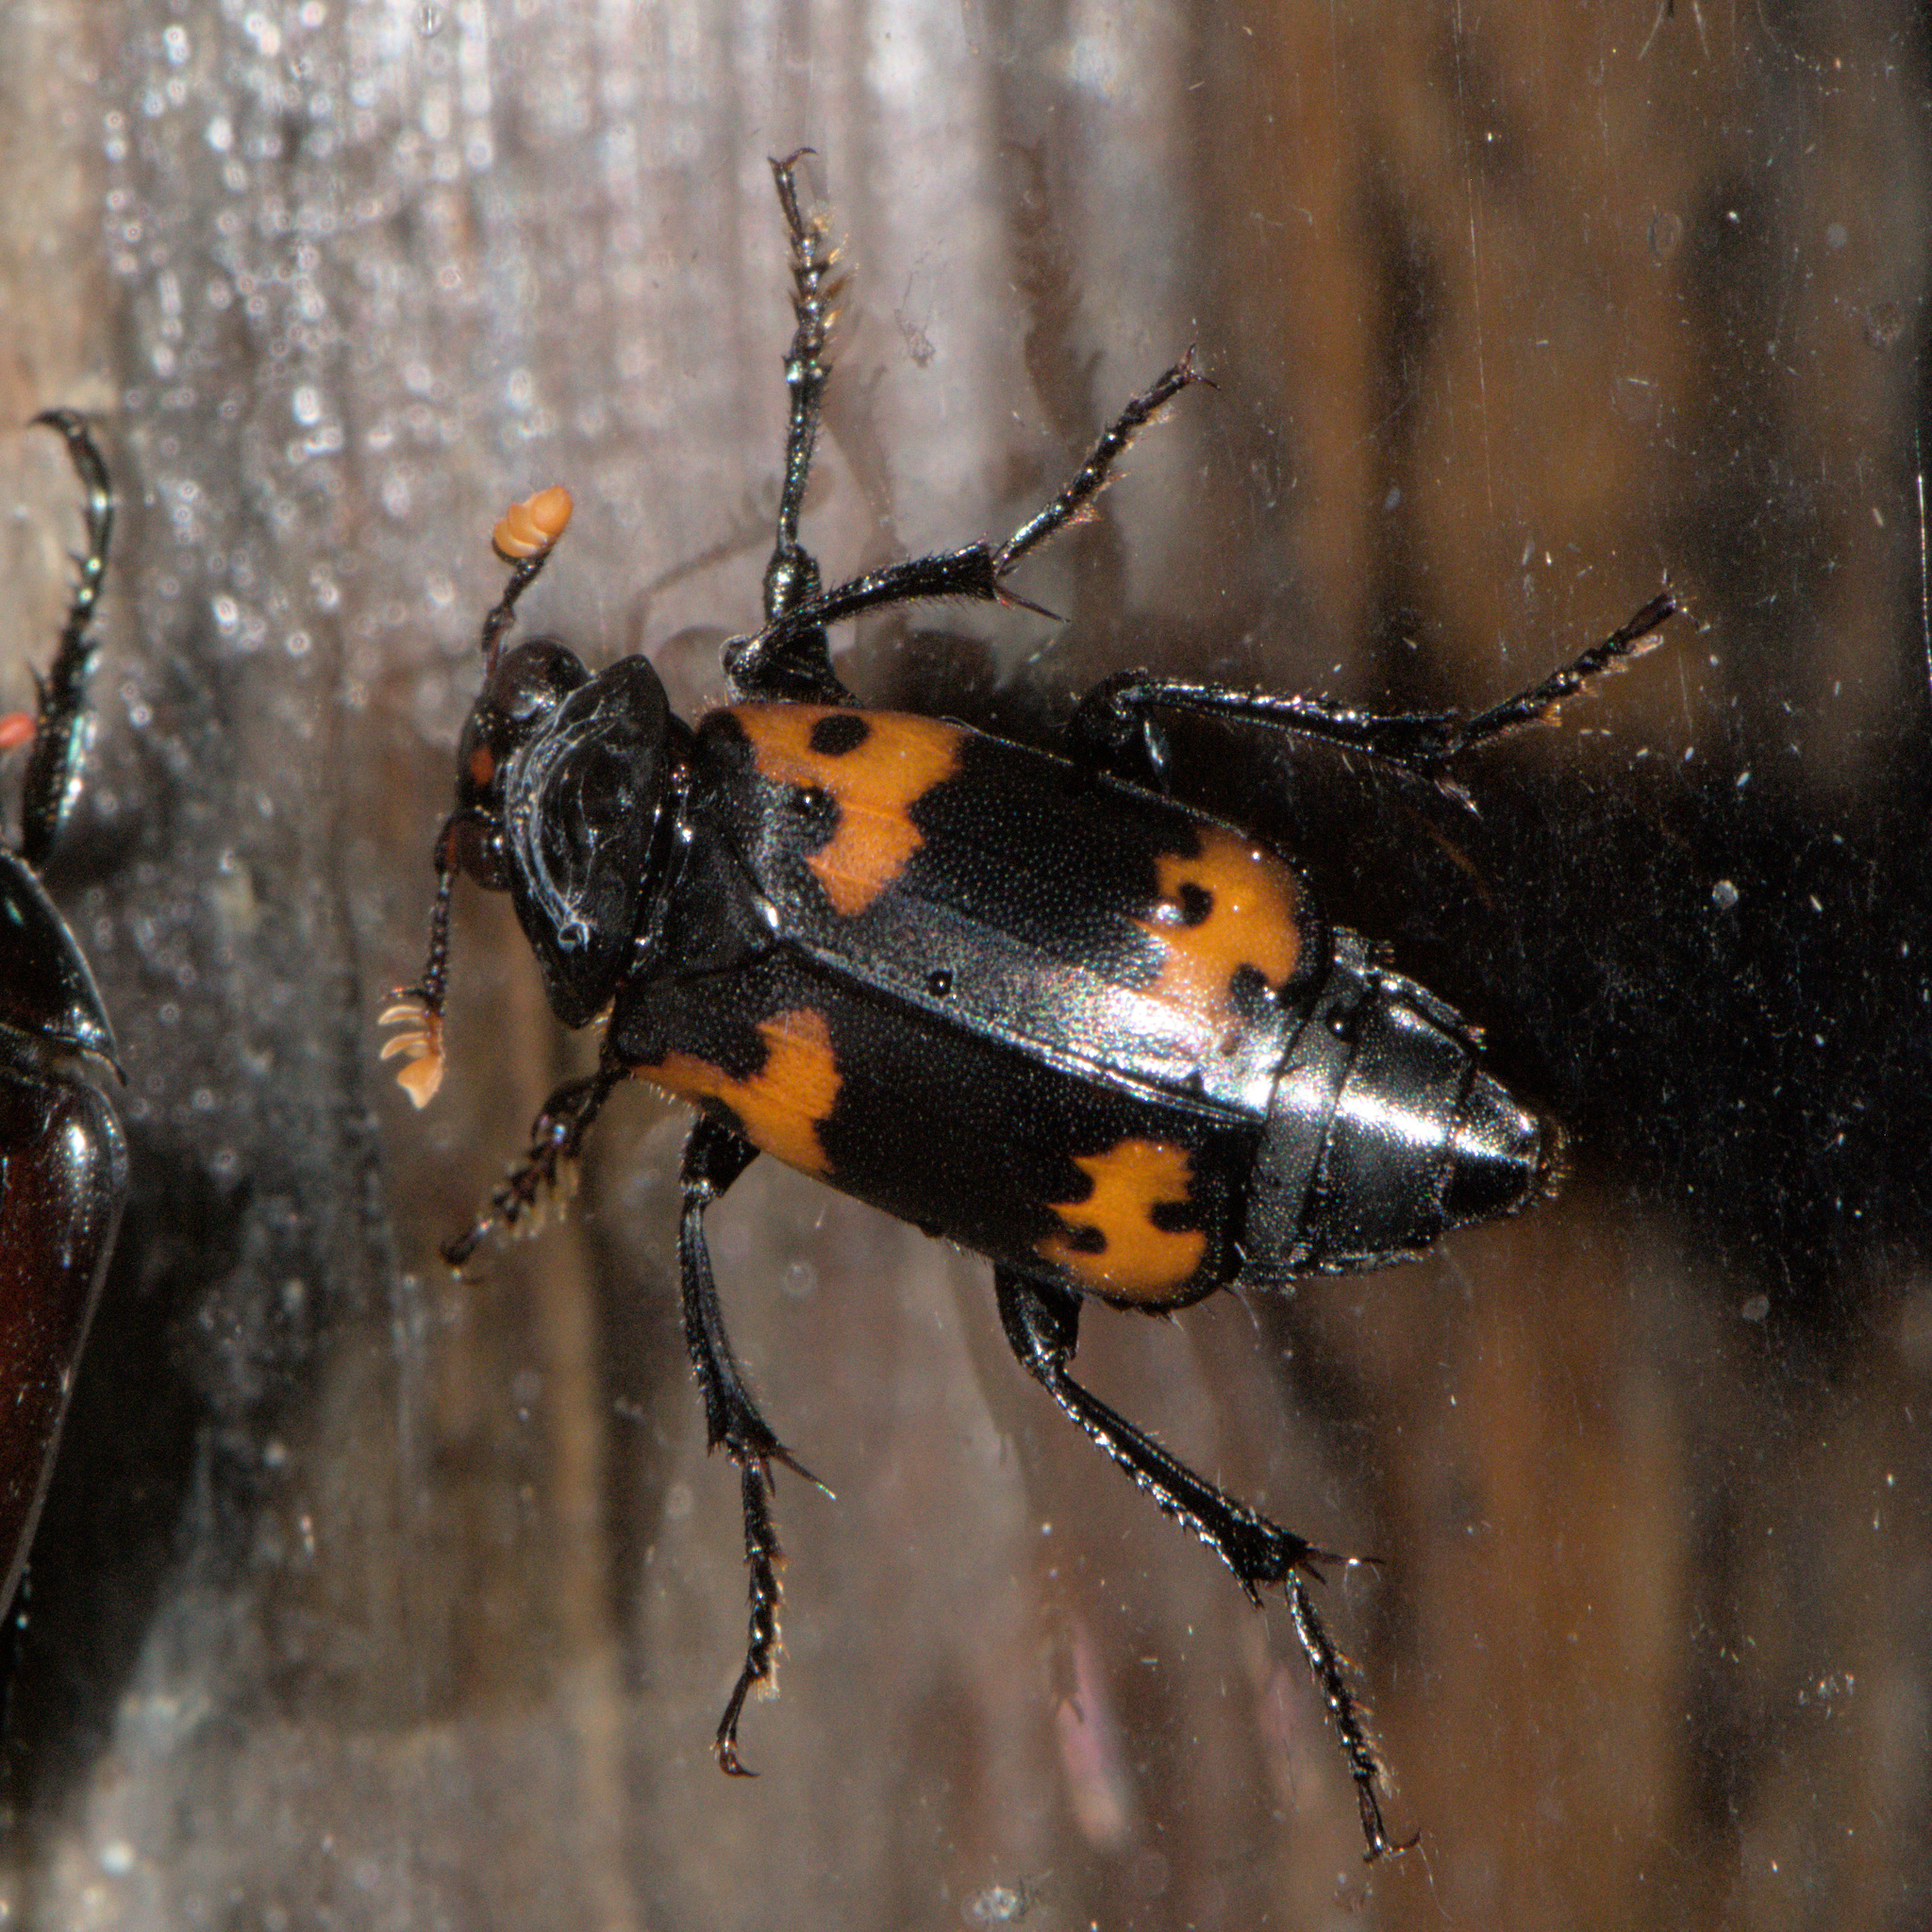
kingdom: Animalia
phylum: Arthropoda
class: Insecta
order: Coleoptera
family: Staphylinidae
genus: Nicrophorus
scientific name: Nicrophorus nepalensis
